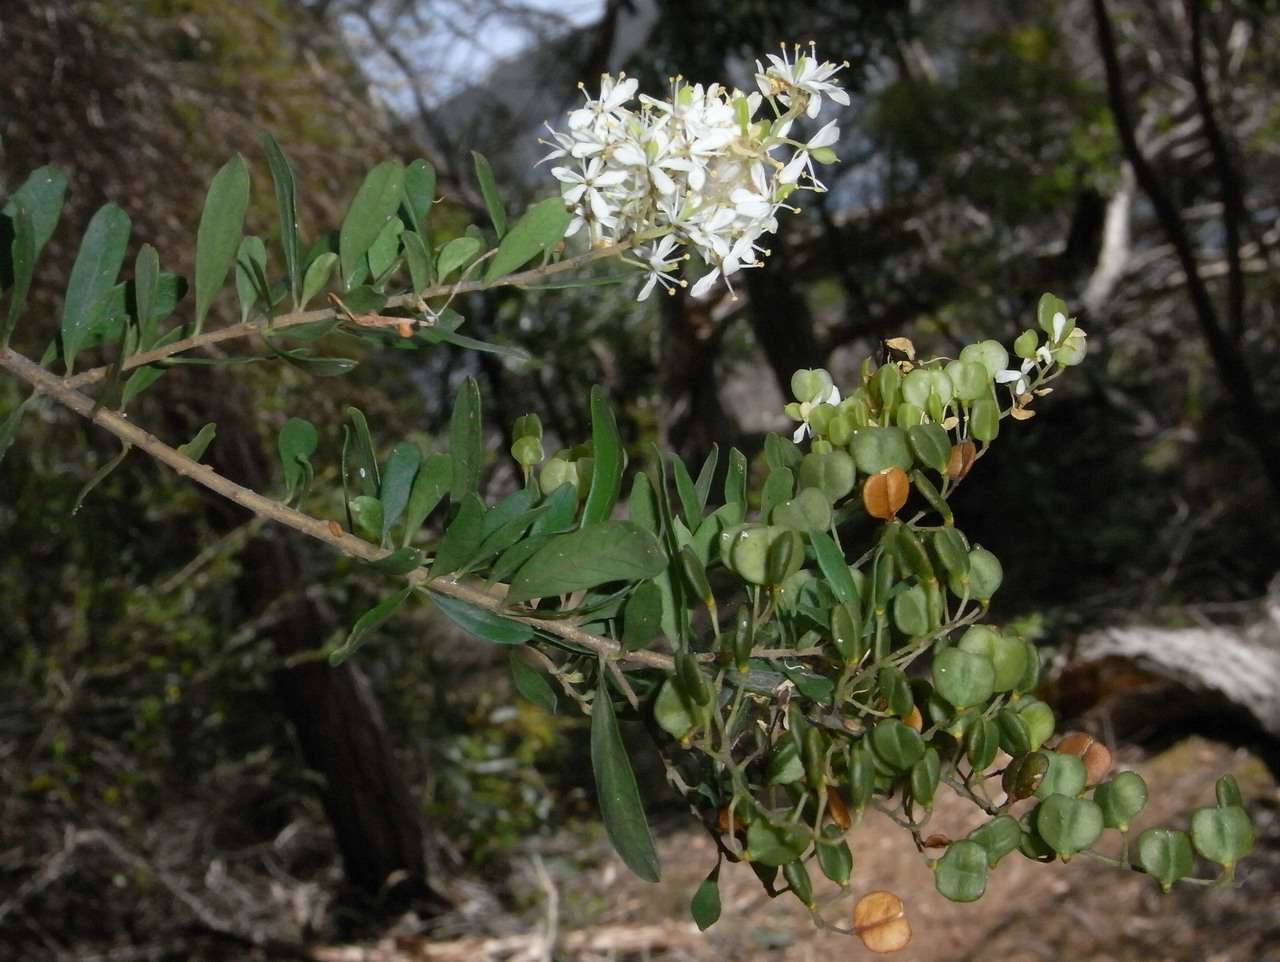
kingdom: Plantae
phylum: Tracheophyta
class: Magnoliopsida
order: Apiales
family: Pittosporaceae
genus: Bursaria
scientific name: Bursaria spinosa
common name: Australian blackthorn
